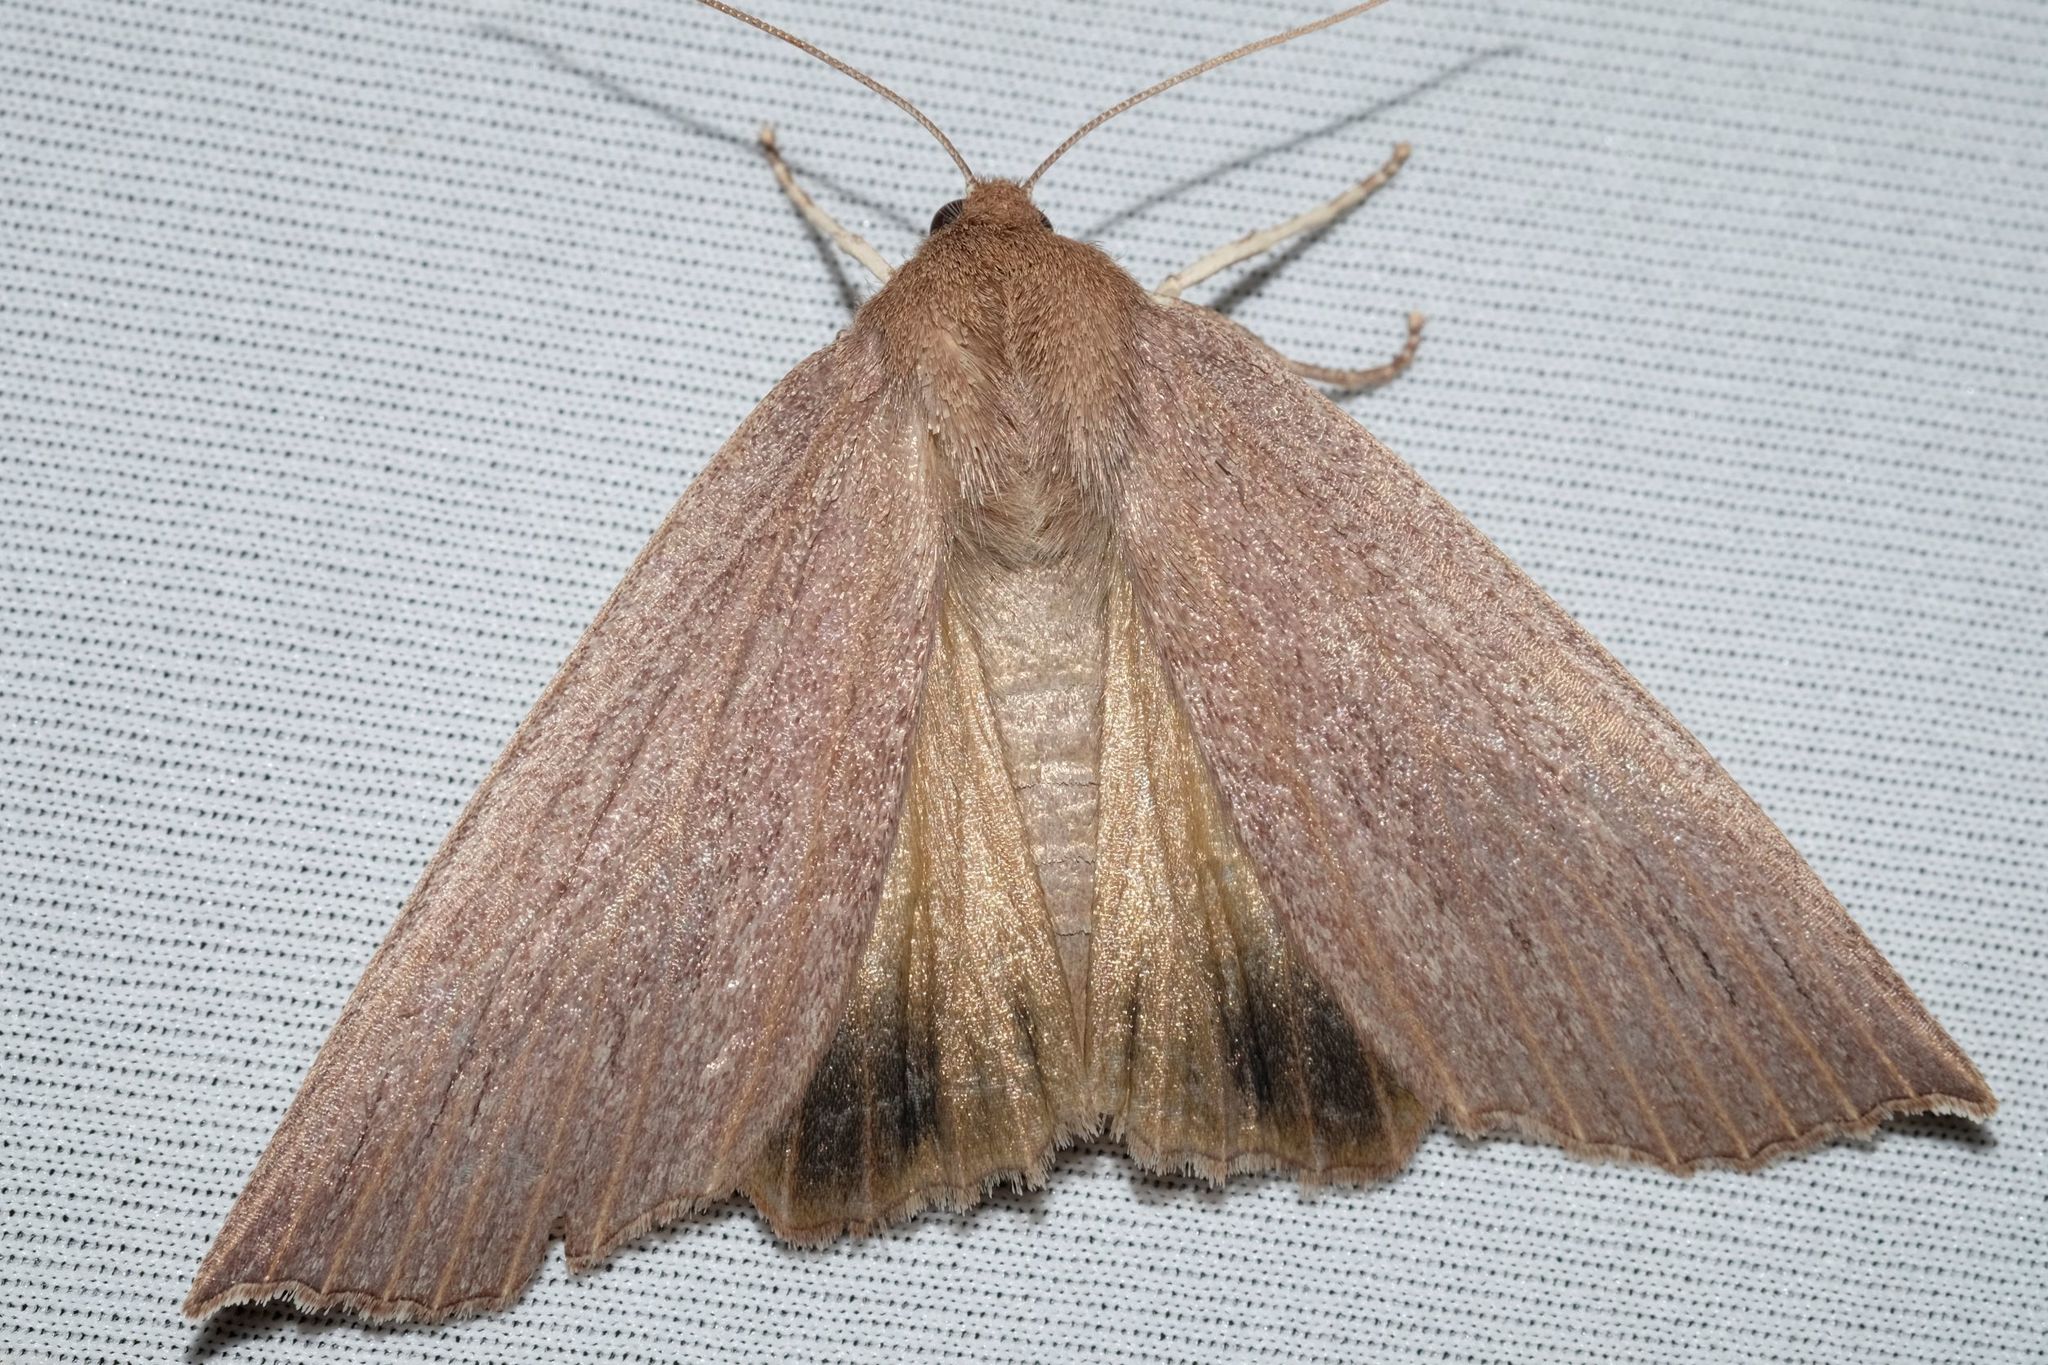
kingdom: Animalia
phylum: Arthropoda
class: Insecta
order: Lepidoptera
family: Geometridae
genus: Palleopa
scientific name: Palleopa innotata
